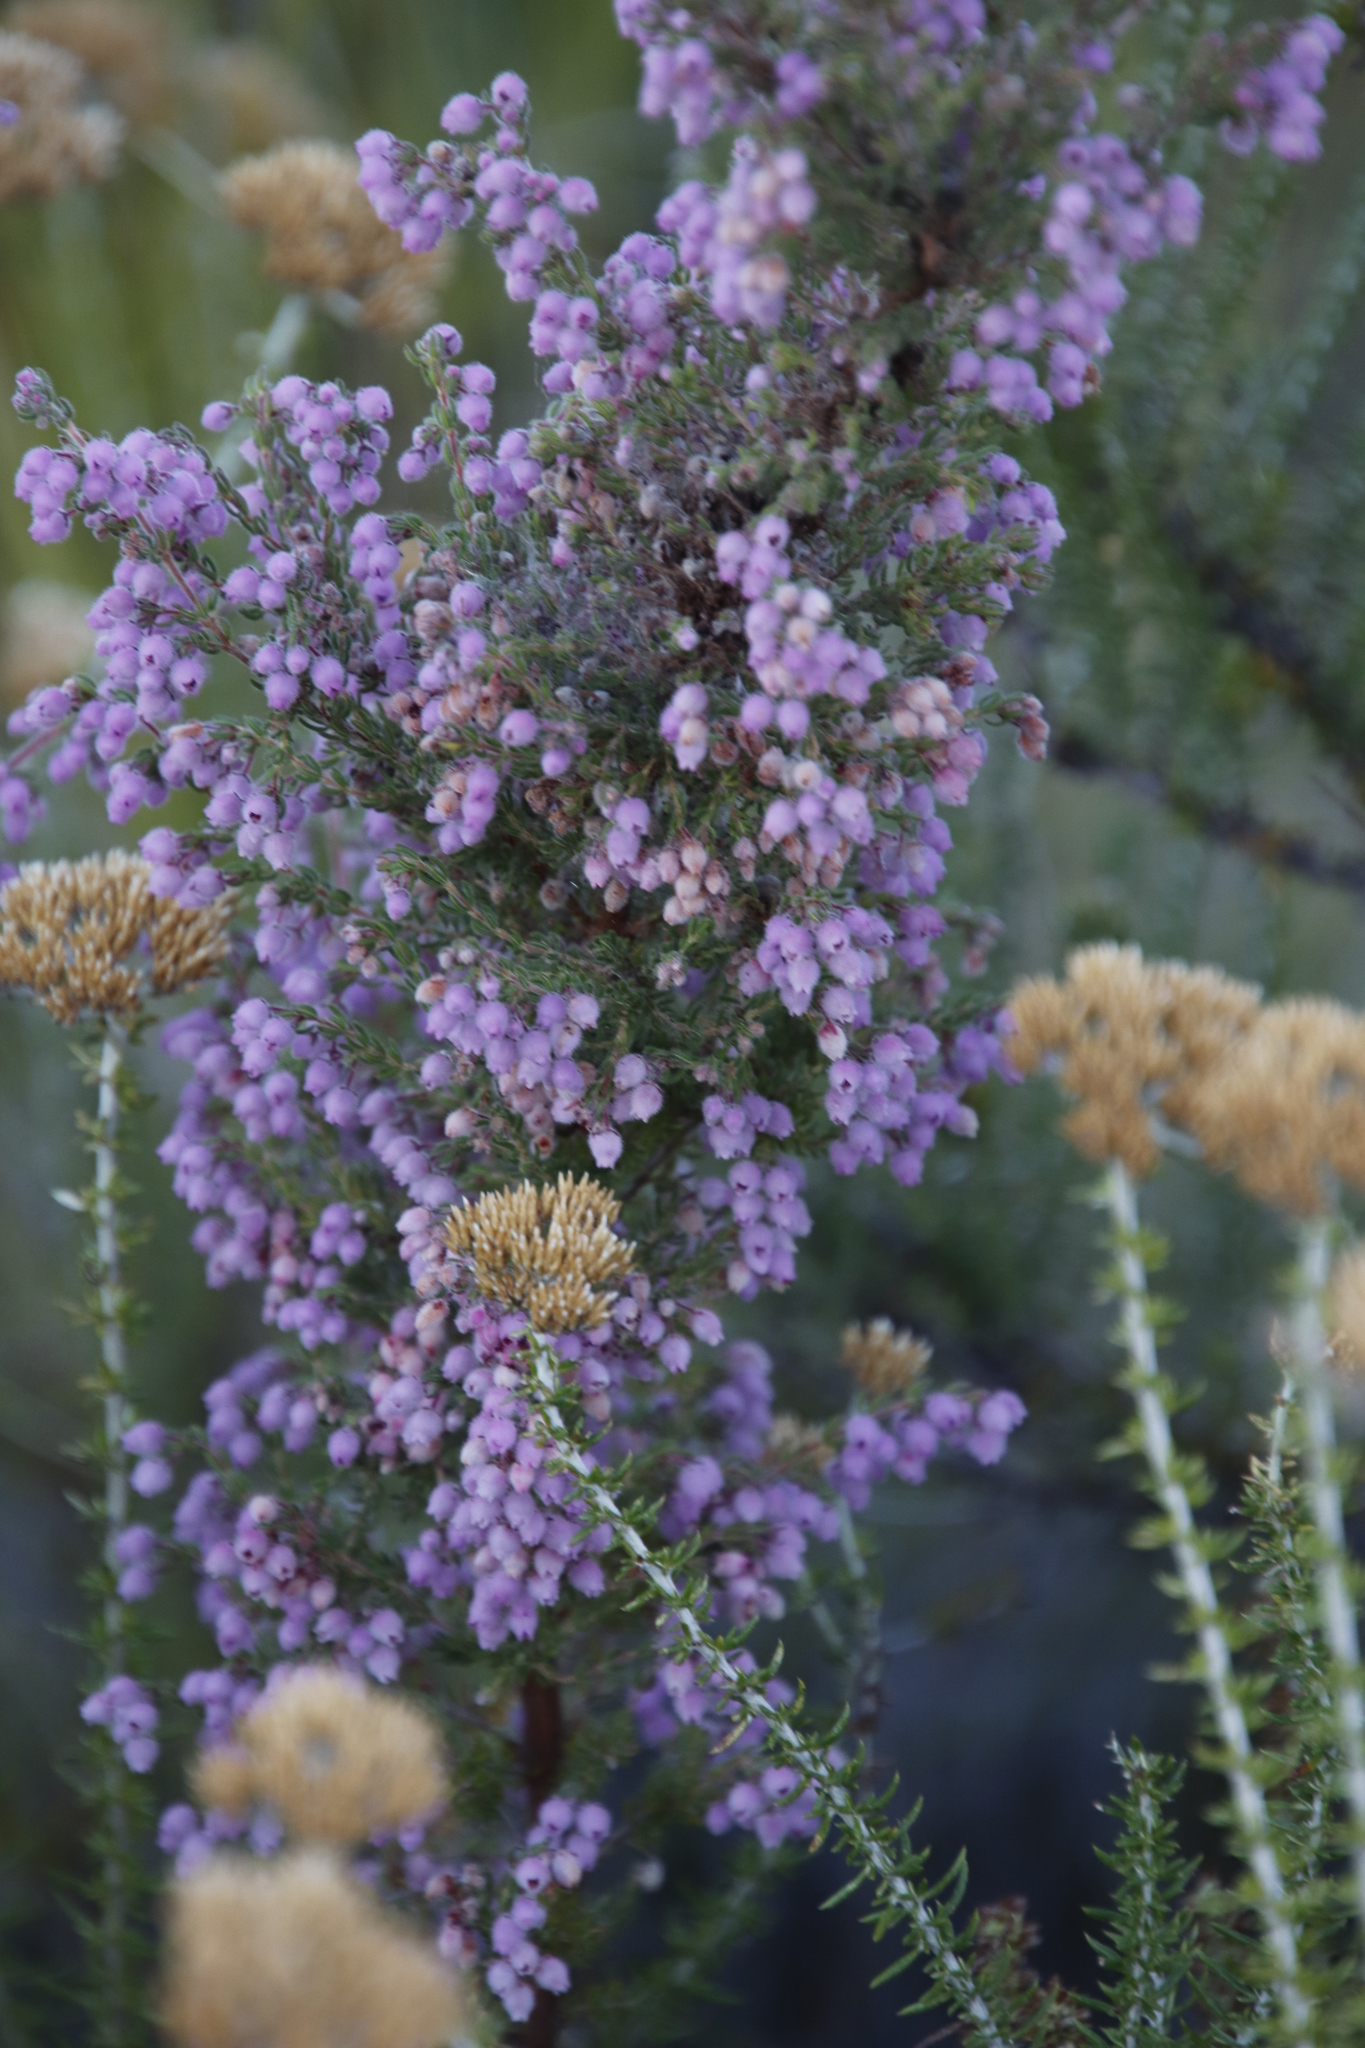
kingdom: Plantae
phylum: Tracheophyta
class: Magnoliopsida
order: Ericales
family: Ericaceae
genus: Erica
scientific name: Erica hirtiflora
